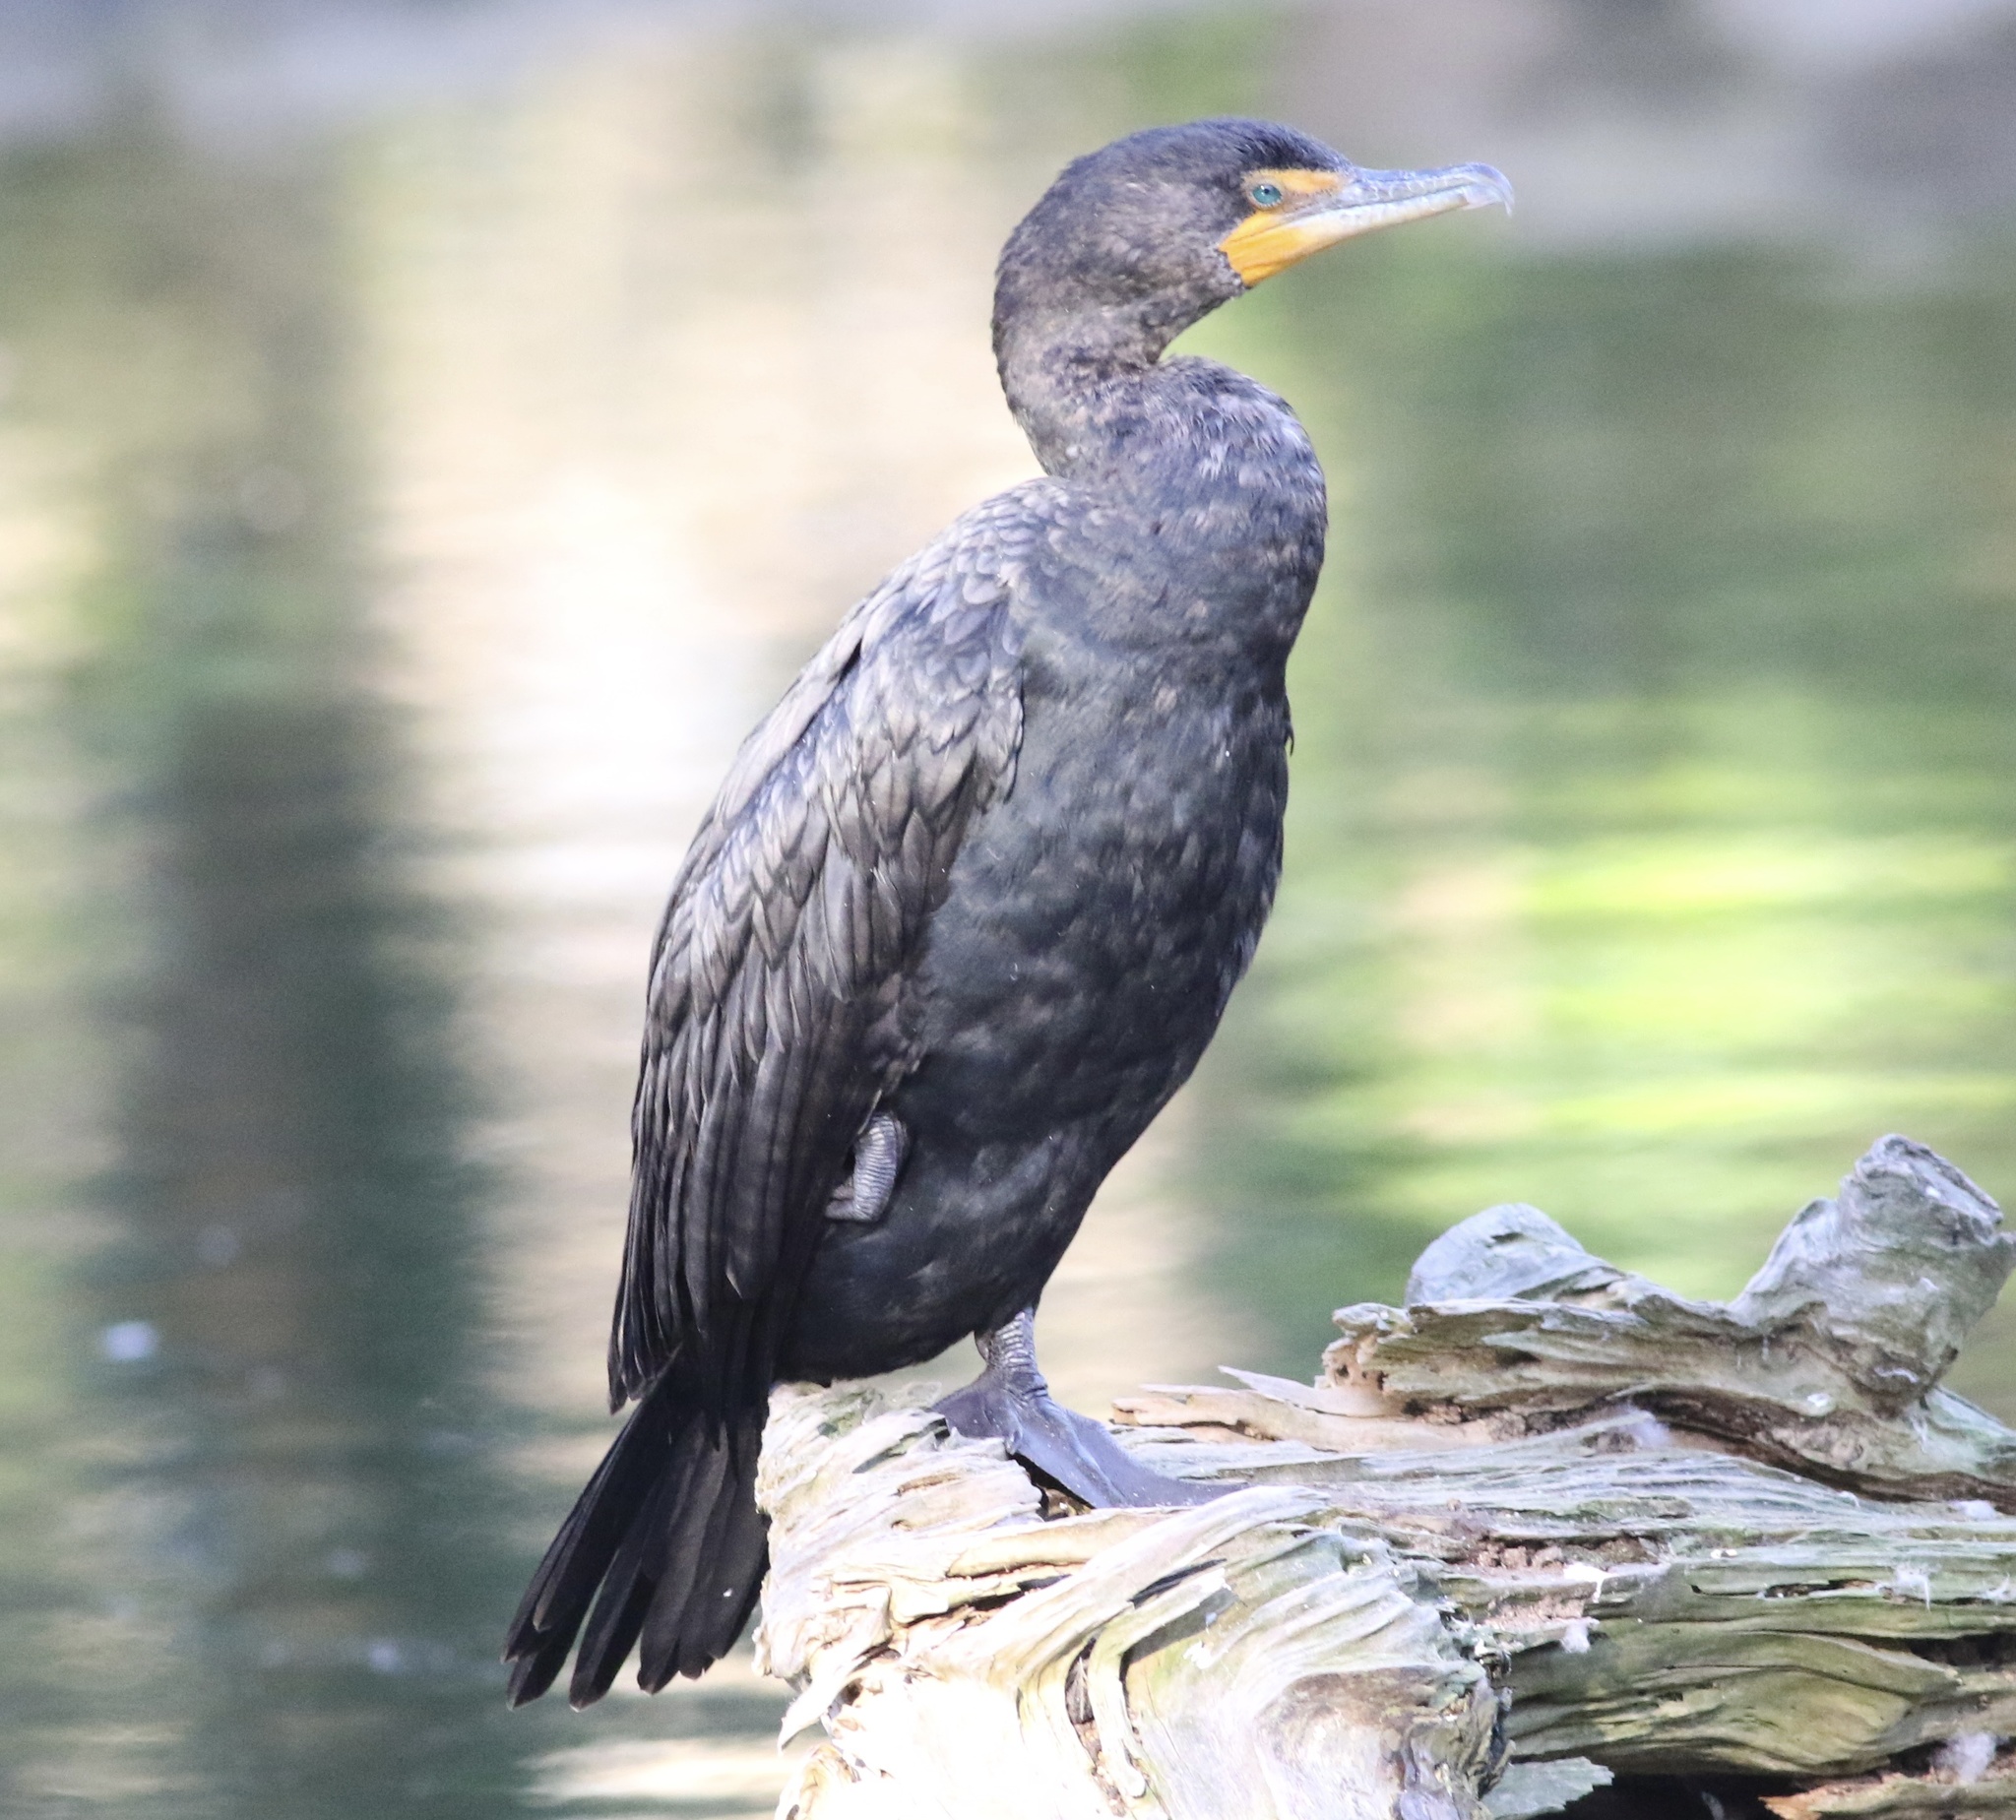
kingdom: Animalia
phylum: Chordata
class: Aves
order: Suliformes
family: Phalacrocoracidae
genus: Phalacrocorax
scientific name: Phalacrocorax auritus
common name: Double-crested cormorant
